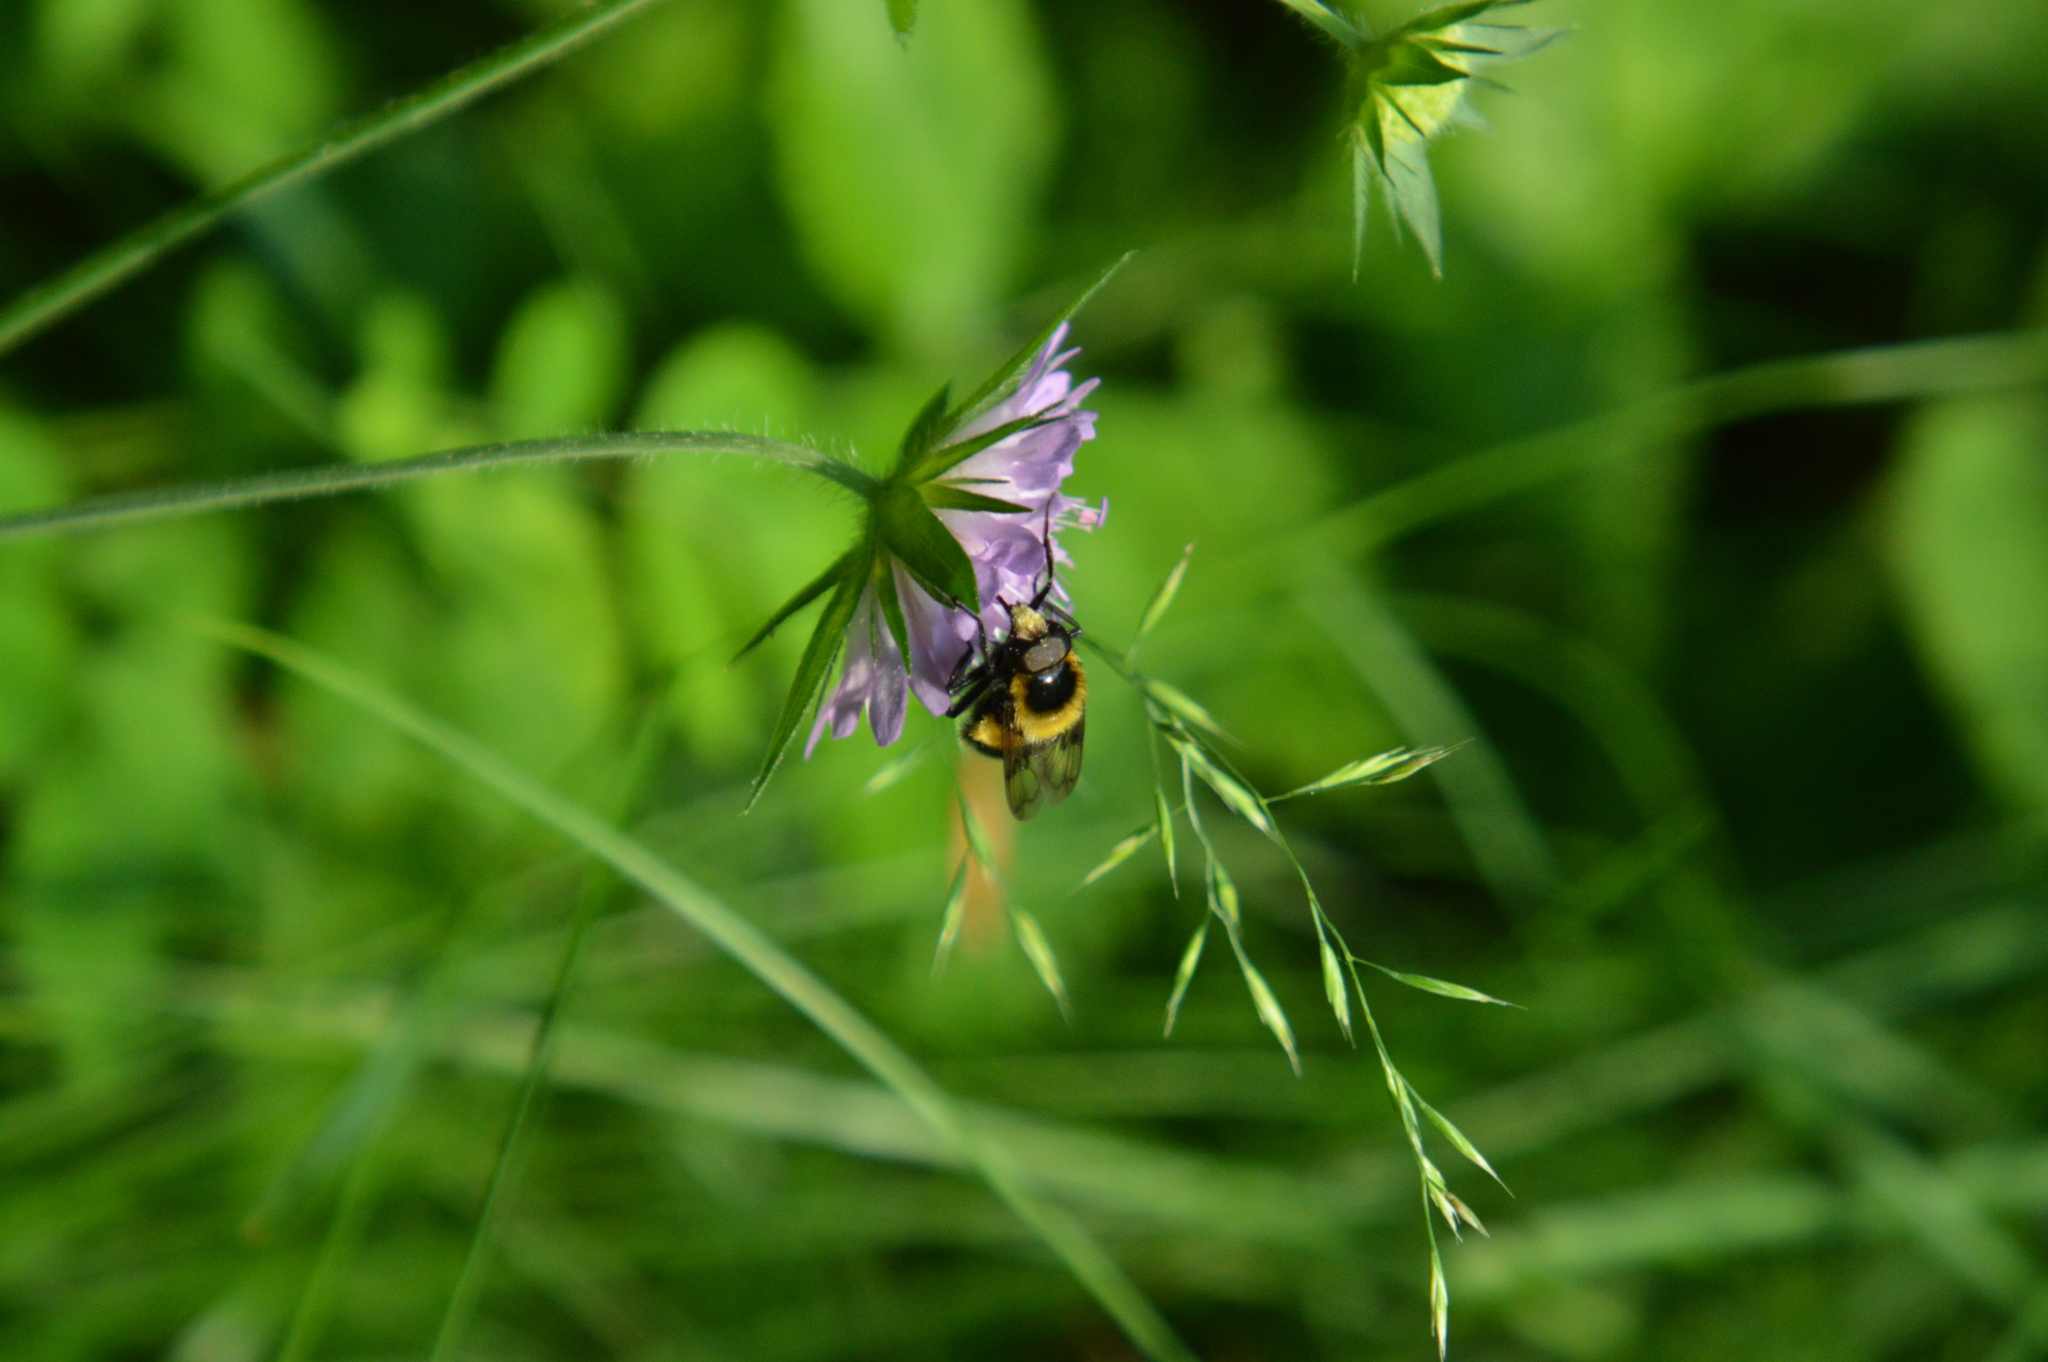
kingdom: Animalia
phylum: Arthropoda
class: Insecta
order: Diptera
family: Syrphidae
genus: Volucella
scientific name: Volucella bombylans
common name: Bumble bee hover fly
